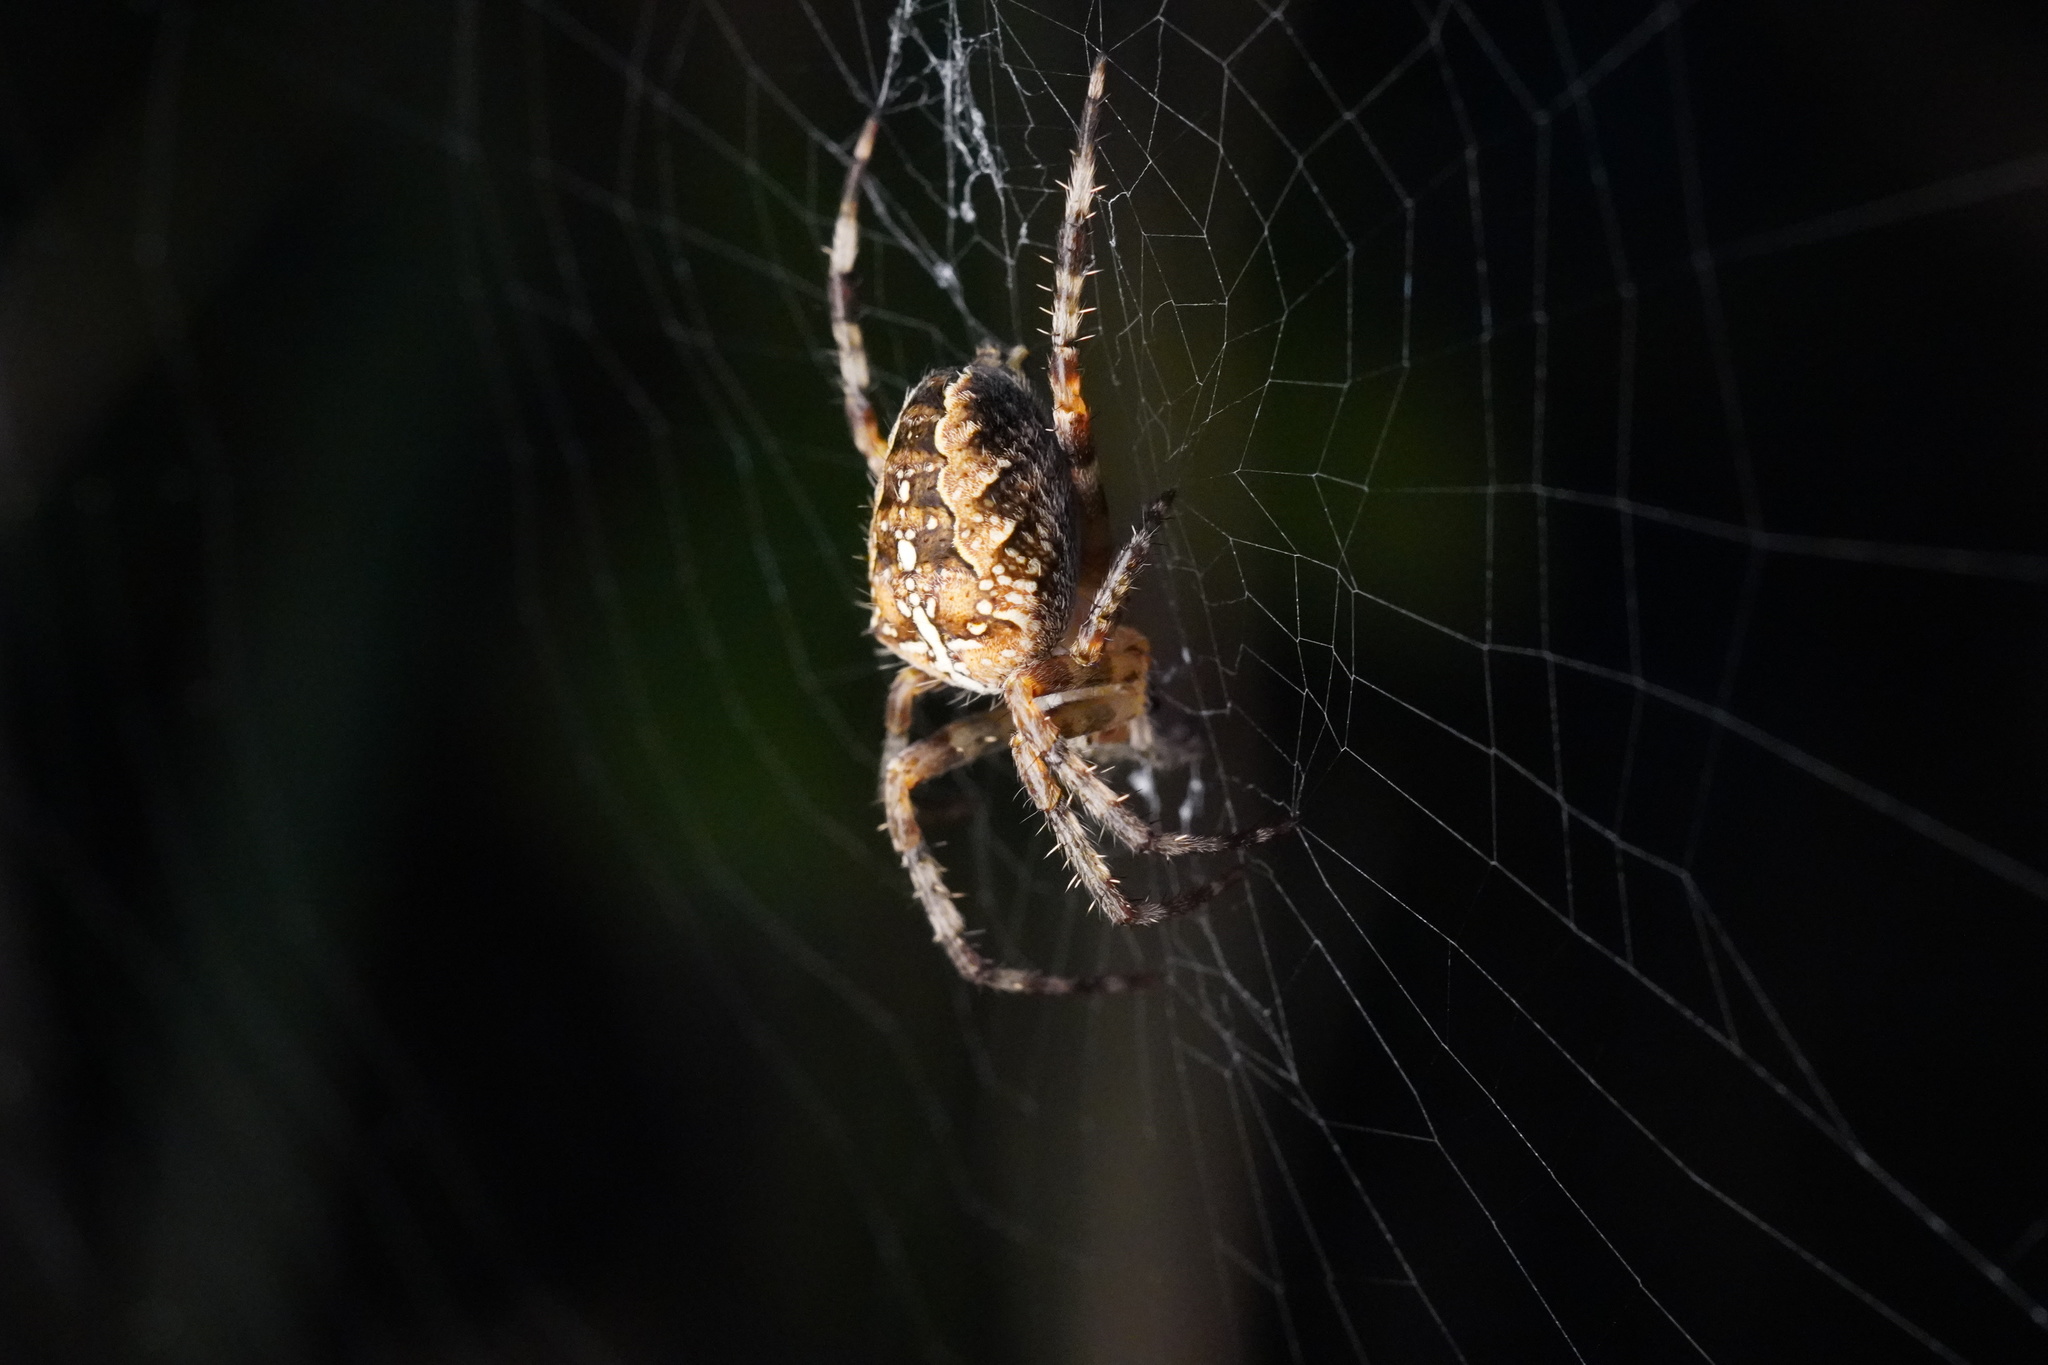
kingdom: Animalia
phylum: Arthropoda
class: Arachnida
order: Araneae
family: Araneidae
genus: Araneus
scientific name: Araneus diadematus
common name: Cross orbweaver
